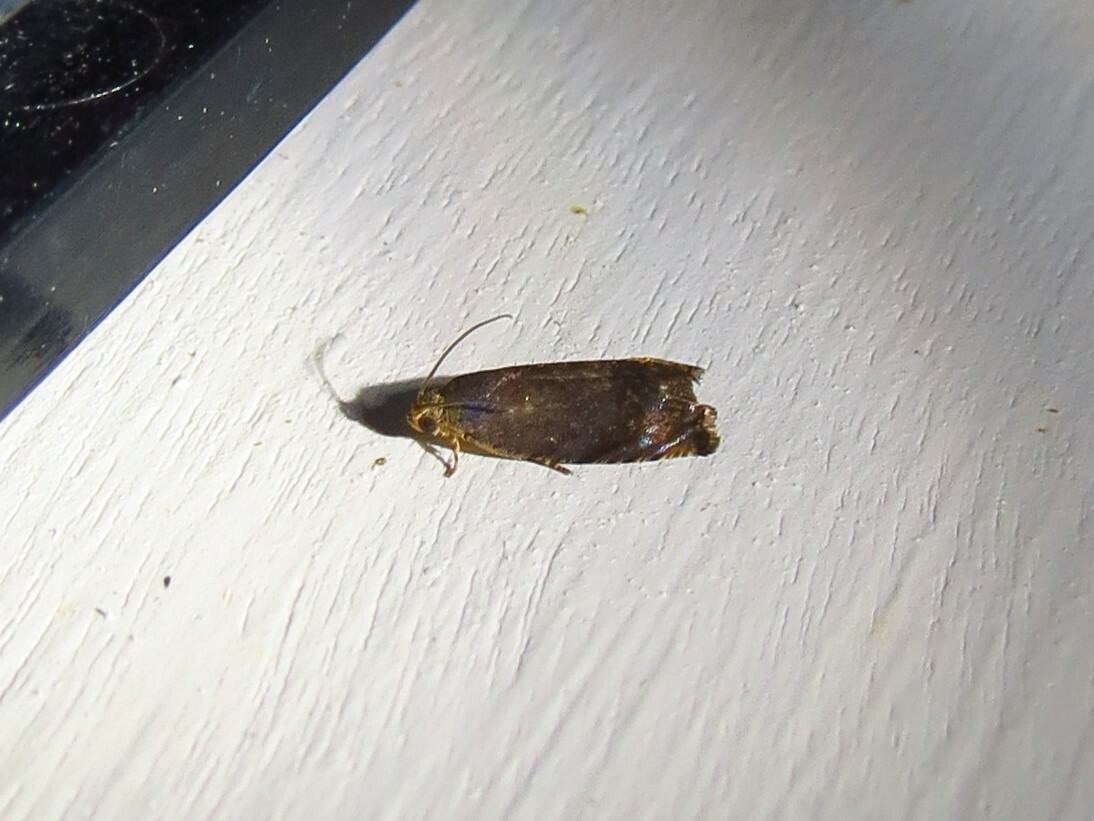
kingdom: Animalia
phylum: Arthropoda
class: Insecta
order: Lepidoptera
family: Tortricidae
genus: Cydia
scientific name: Cydia caryana
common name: Hickory shuckworm moth
